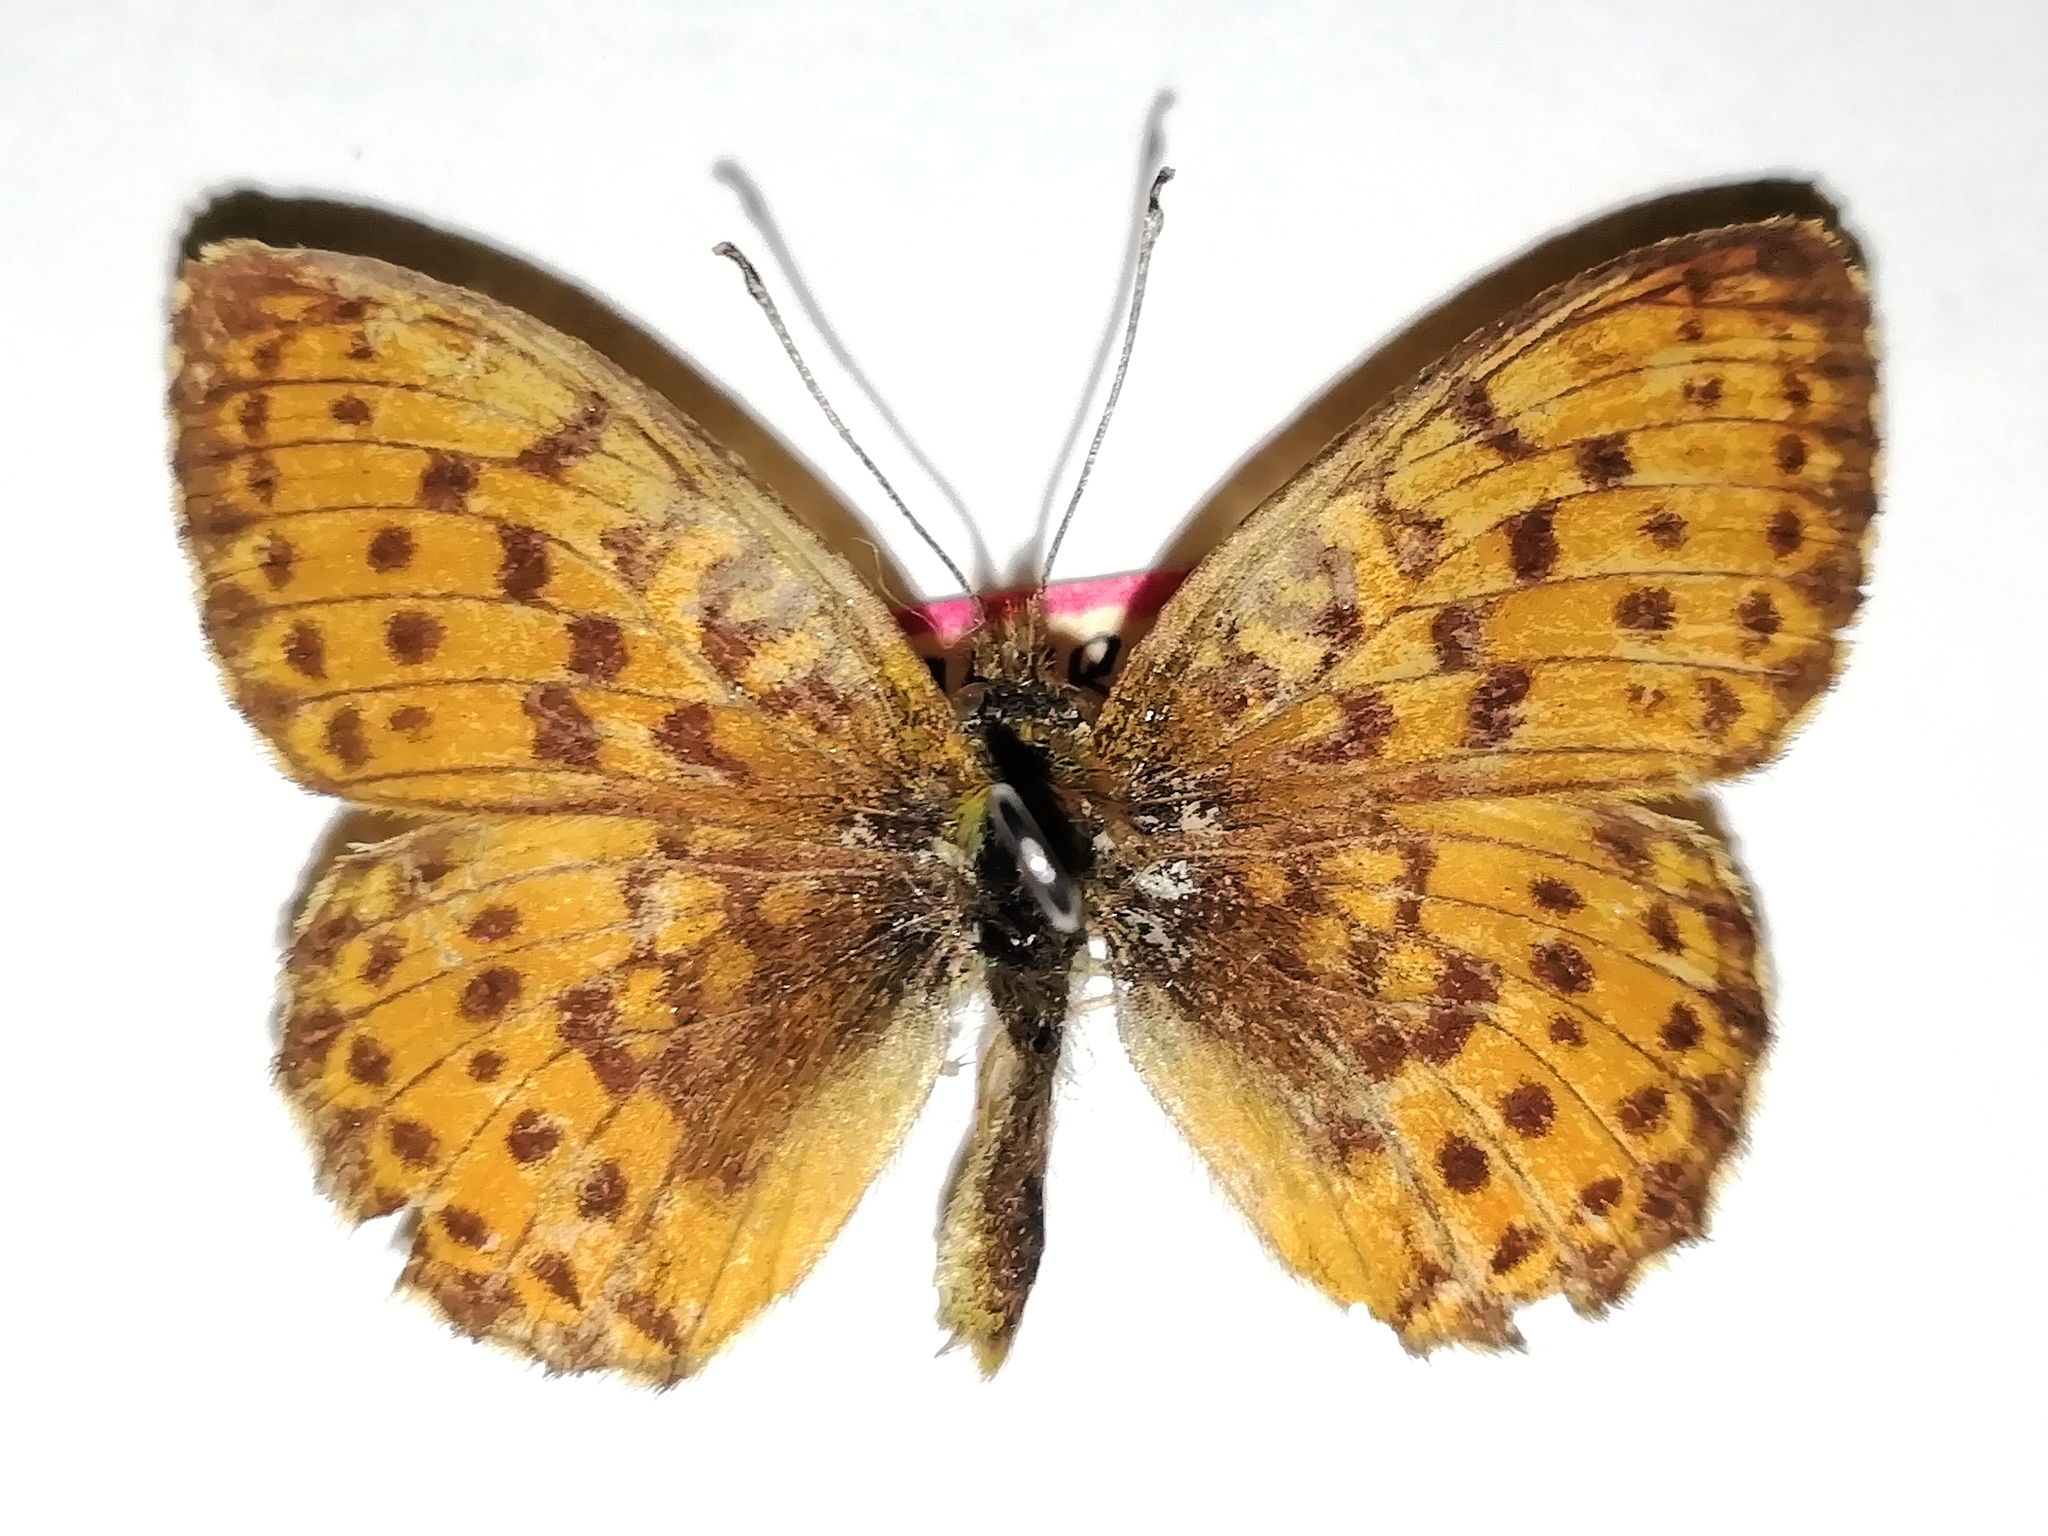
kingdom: Animalia
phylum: Arthropoda
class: Insecta
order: Lepidoptera
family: Nymphalidae
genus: Brenthis
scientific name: Brenthis ino
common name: Lesser marbled fritillary
